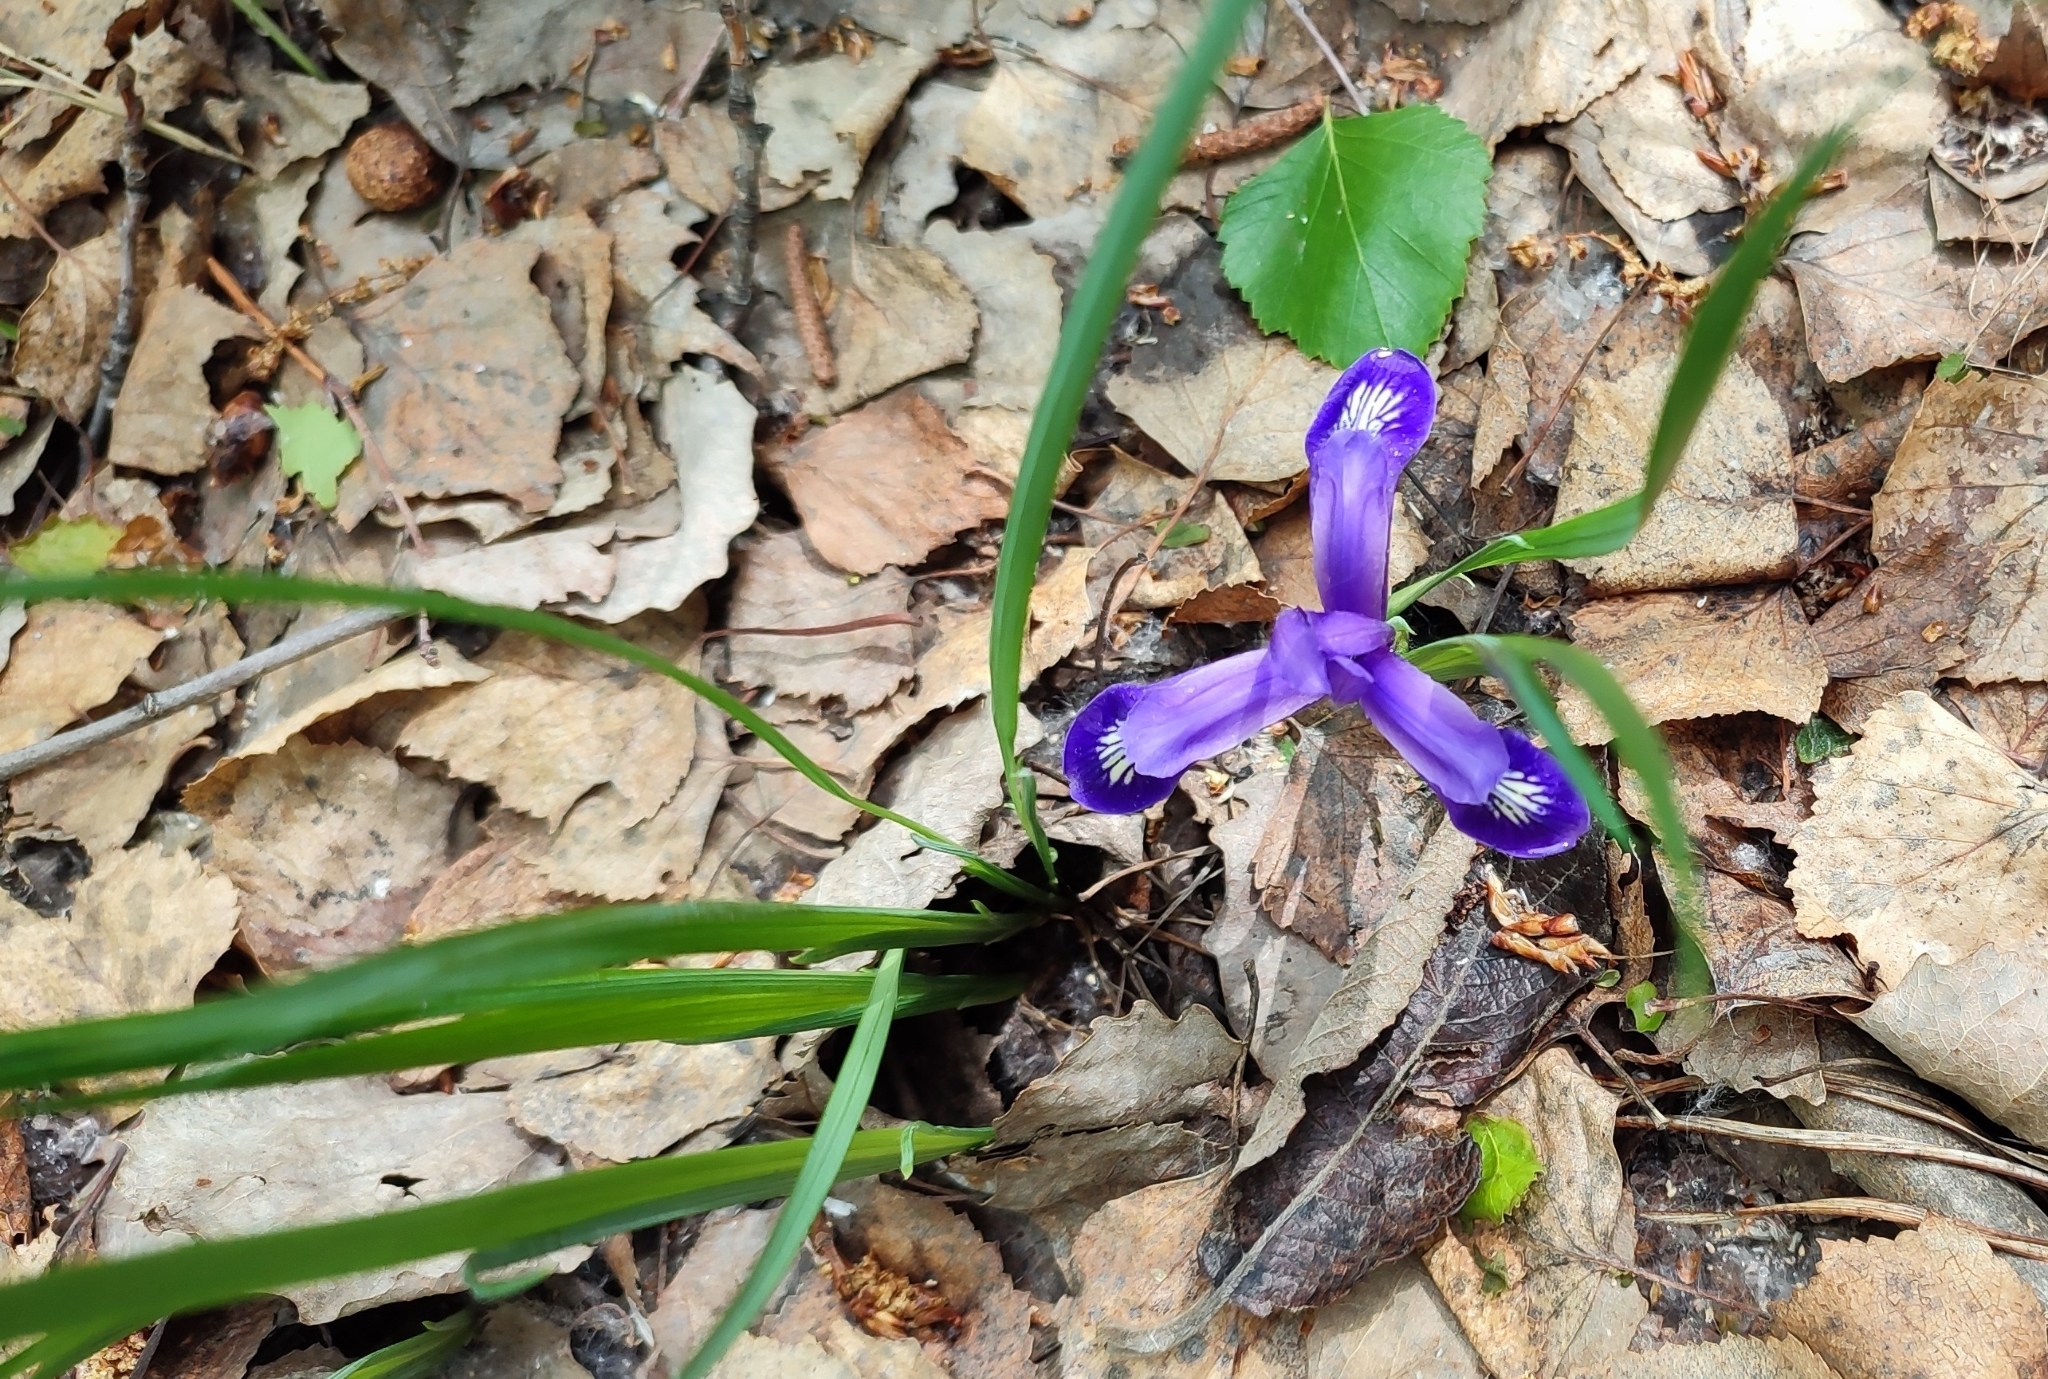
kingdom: Plantae
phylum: Tracheophyta
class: Liliopsida
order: Asparagales
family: Iridaceae
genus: Iris
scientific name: Iris ruthenica
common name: Purple-bract iris
